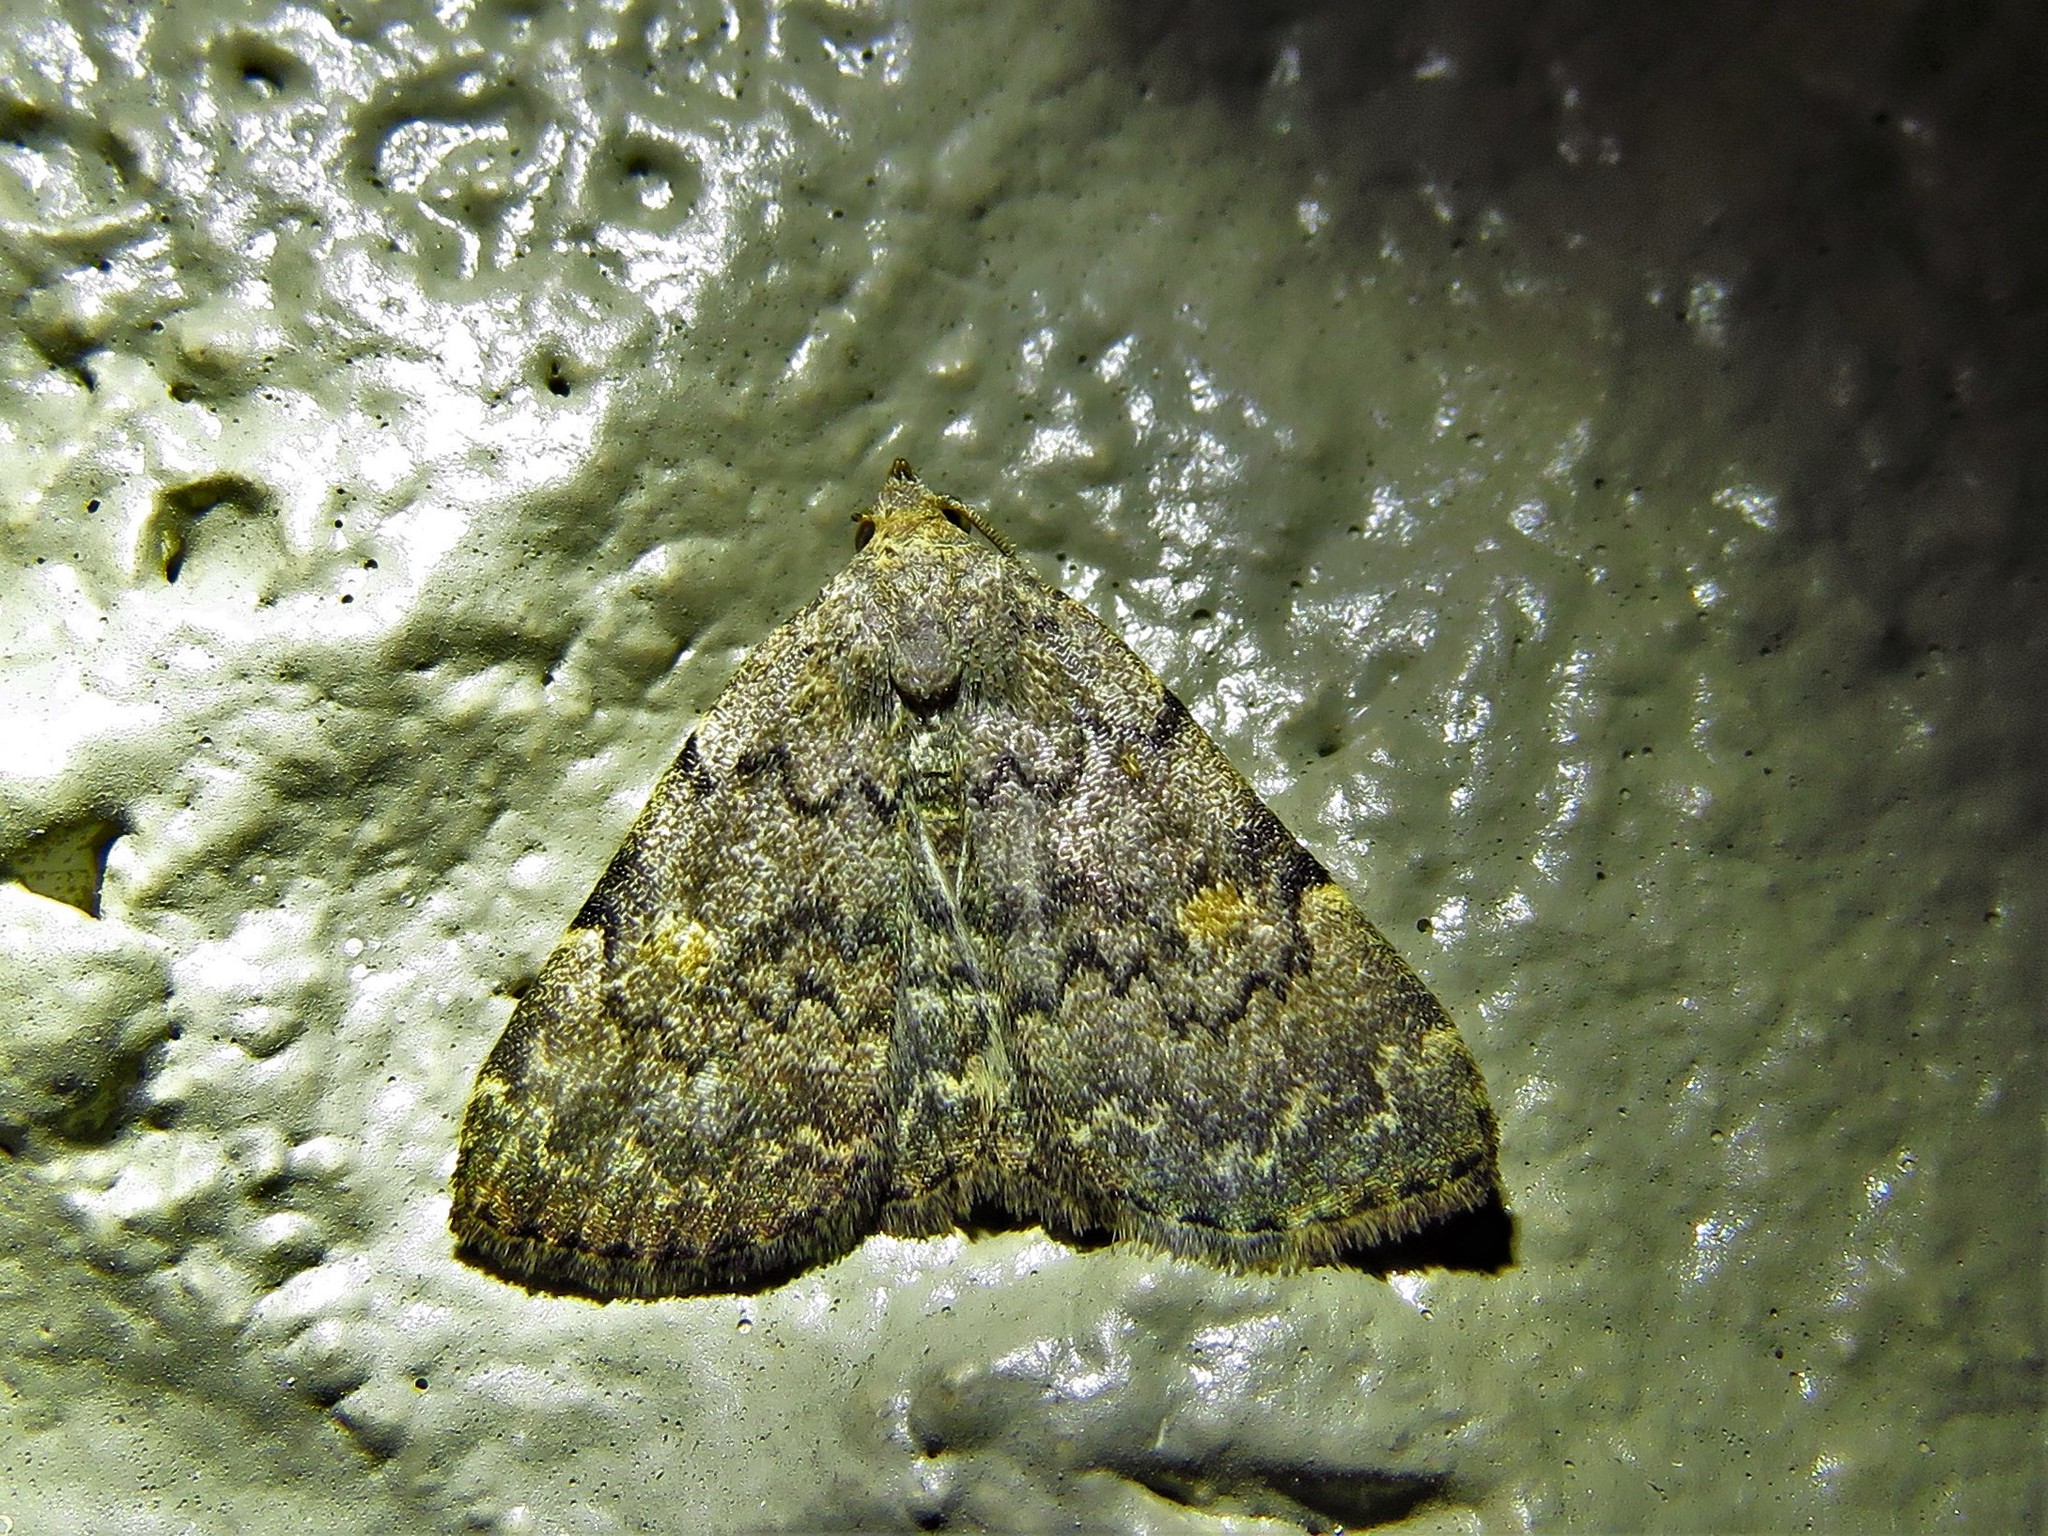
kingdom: Animalia
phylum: Arthropoda
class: Insecta
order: Lepidoptera
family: Erebidae
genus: Idia
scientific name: Idia aemula
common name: Common idia moth
